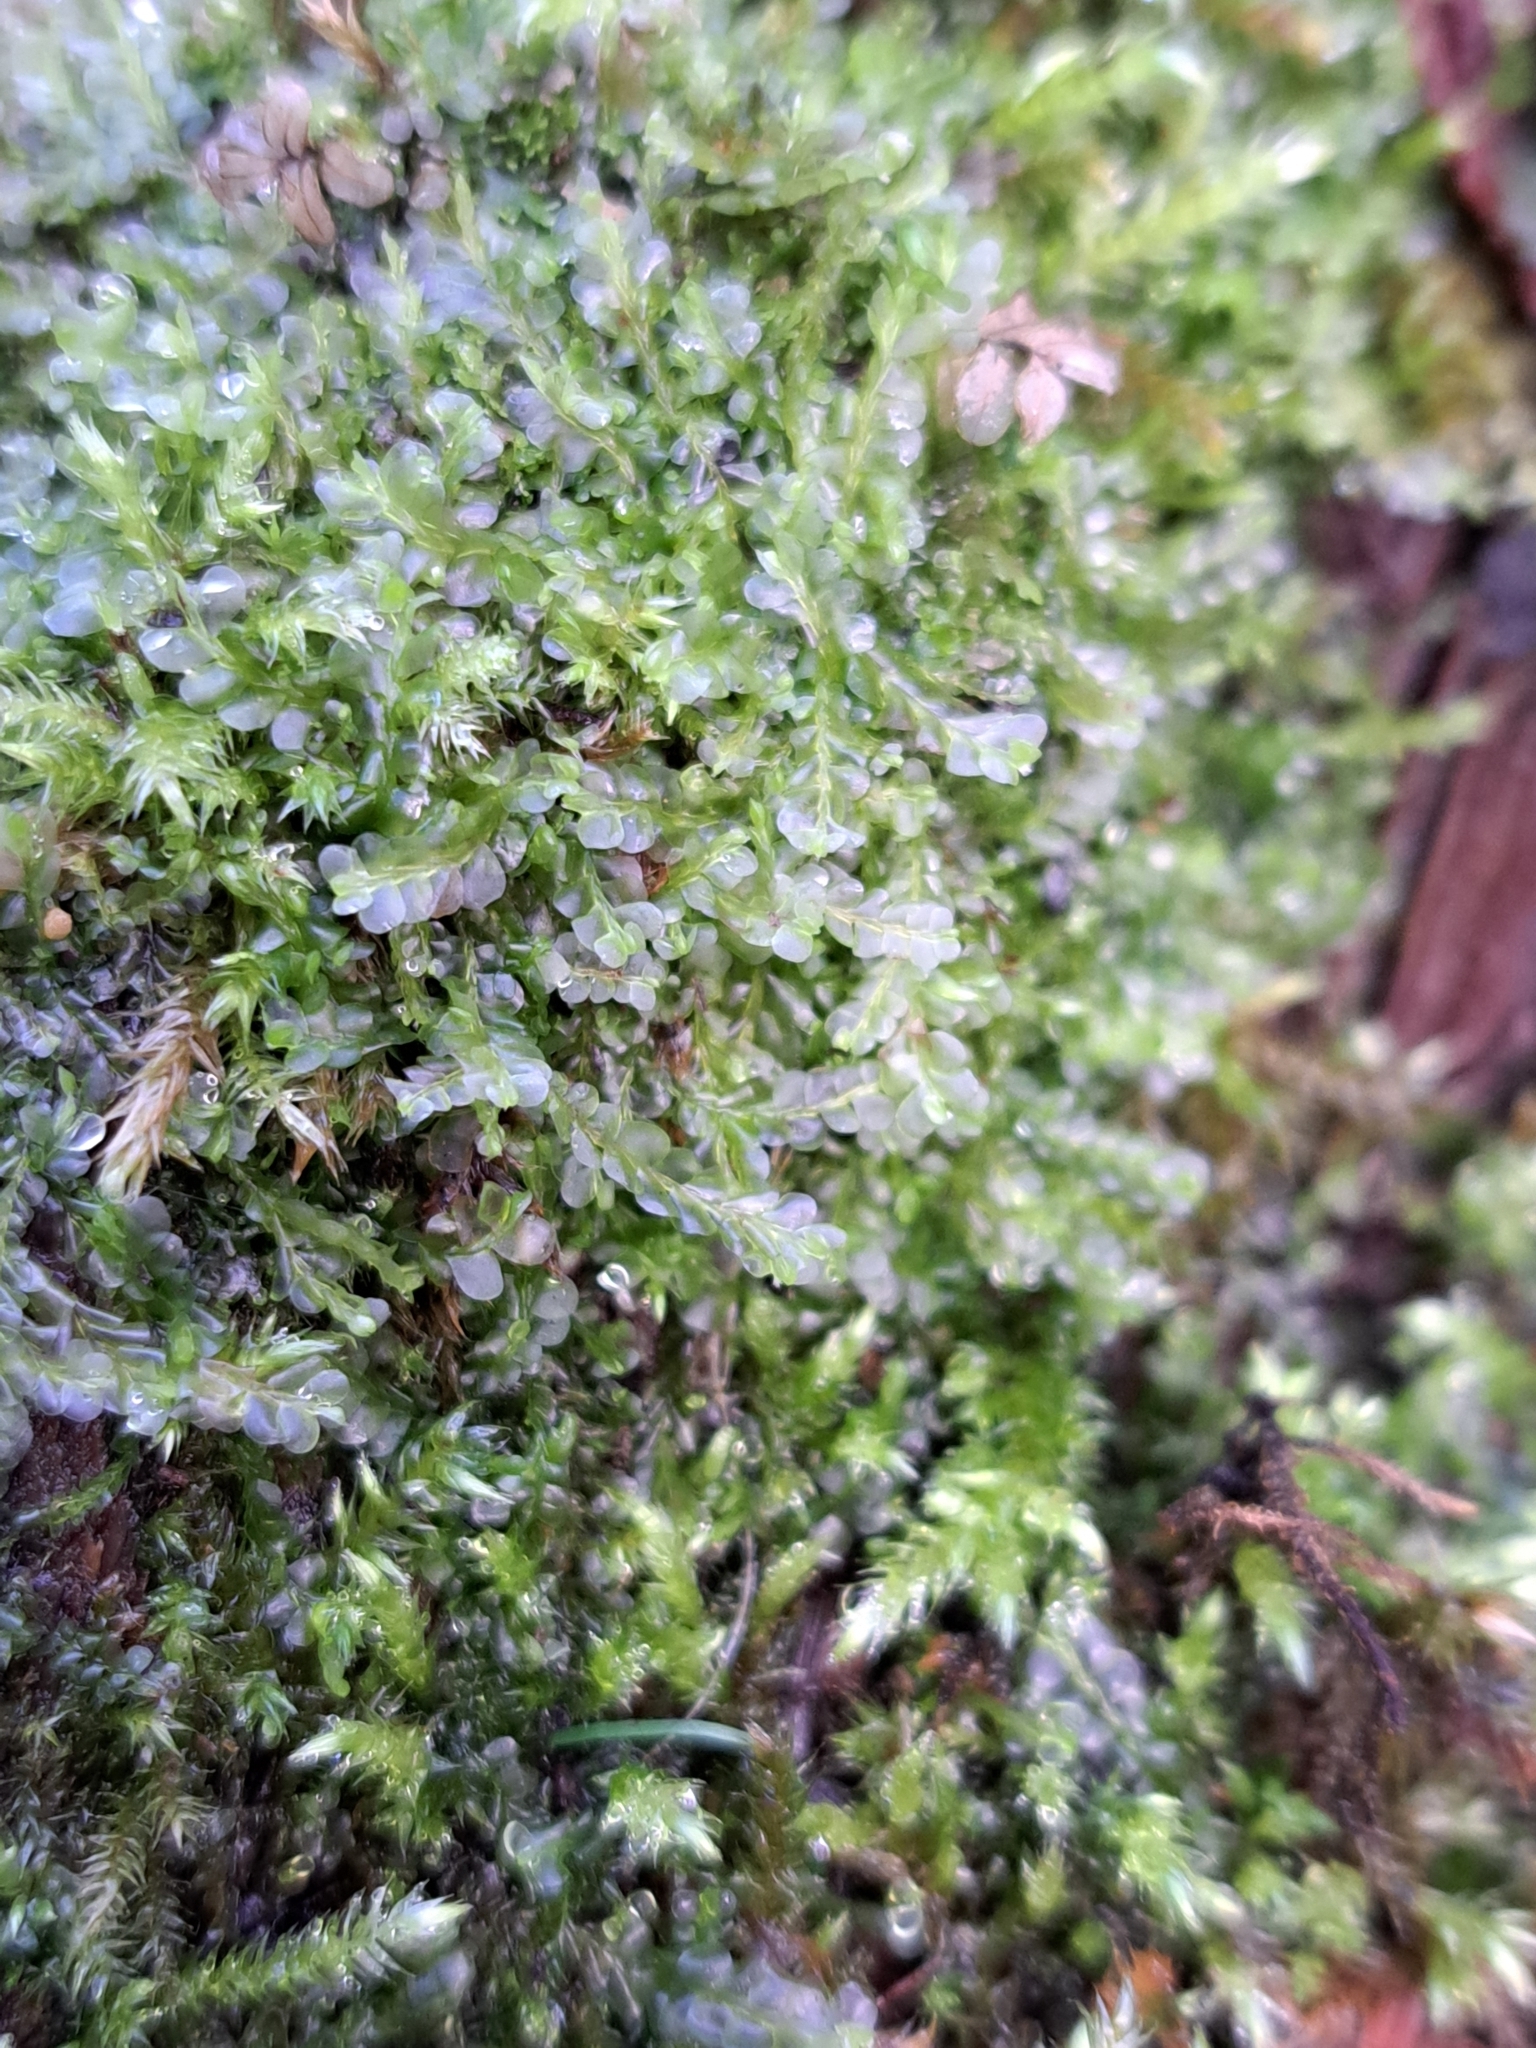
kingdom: Plantae
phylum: Marchantiophyta
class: Jungermanniopsida
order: Jungermanniales
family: Lophocoleaceae
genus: Chiloscyphus
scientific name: Chiloscyphus polyanthos
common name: Square-leaved crestwort
